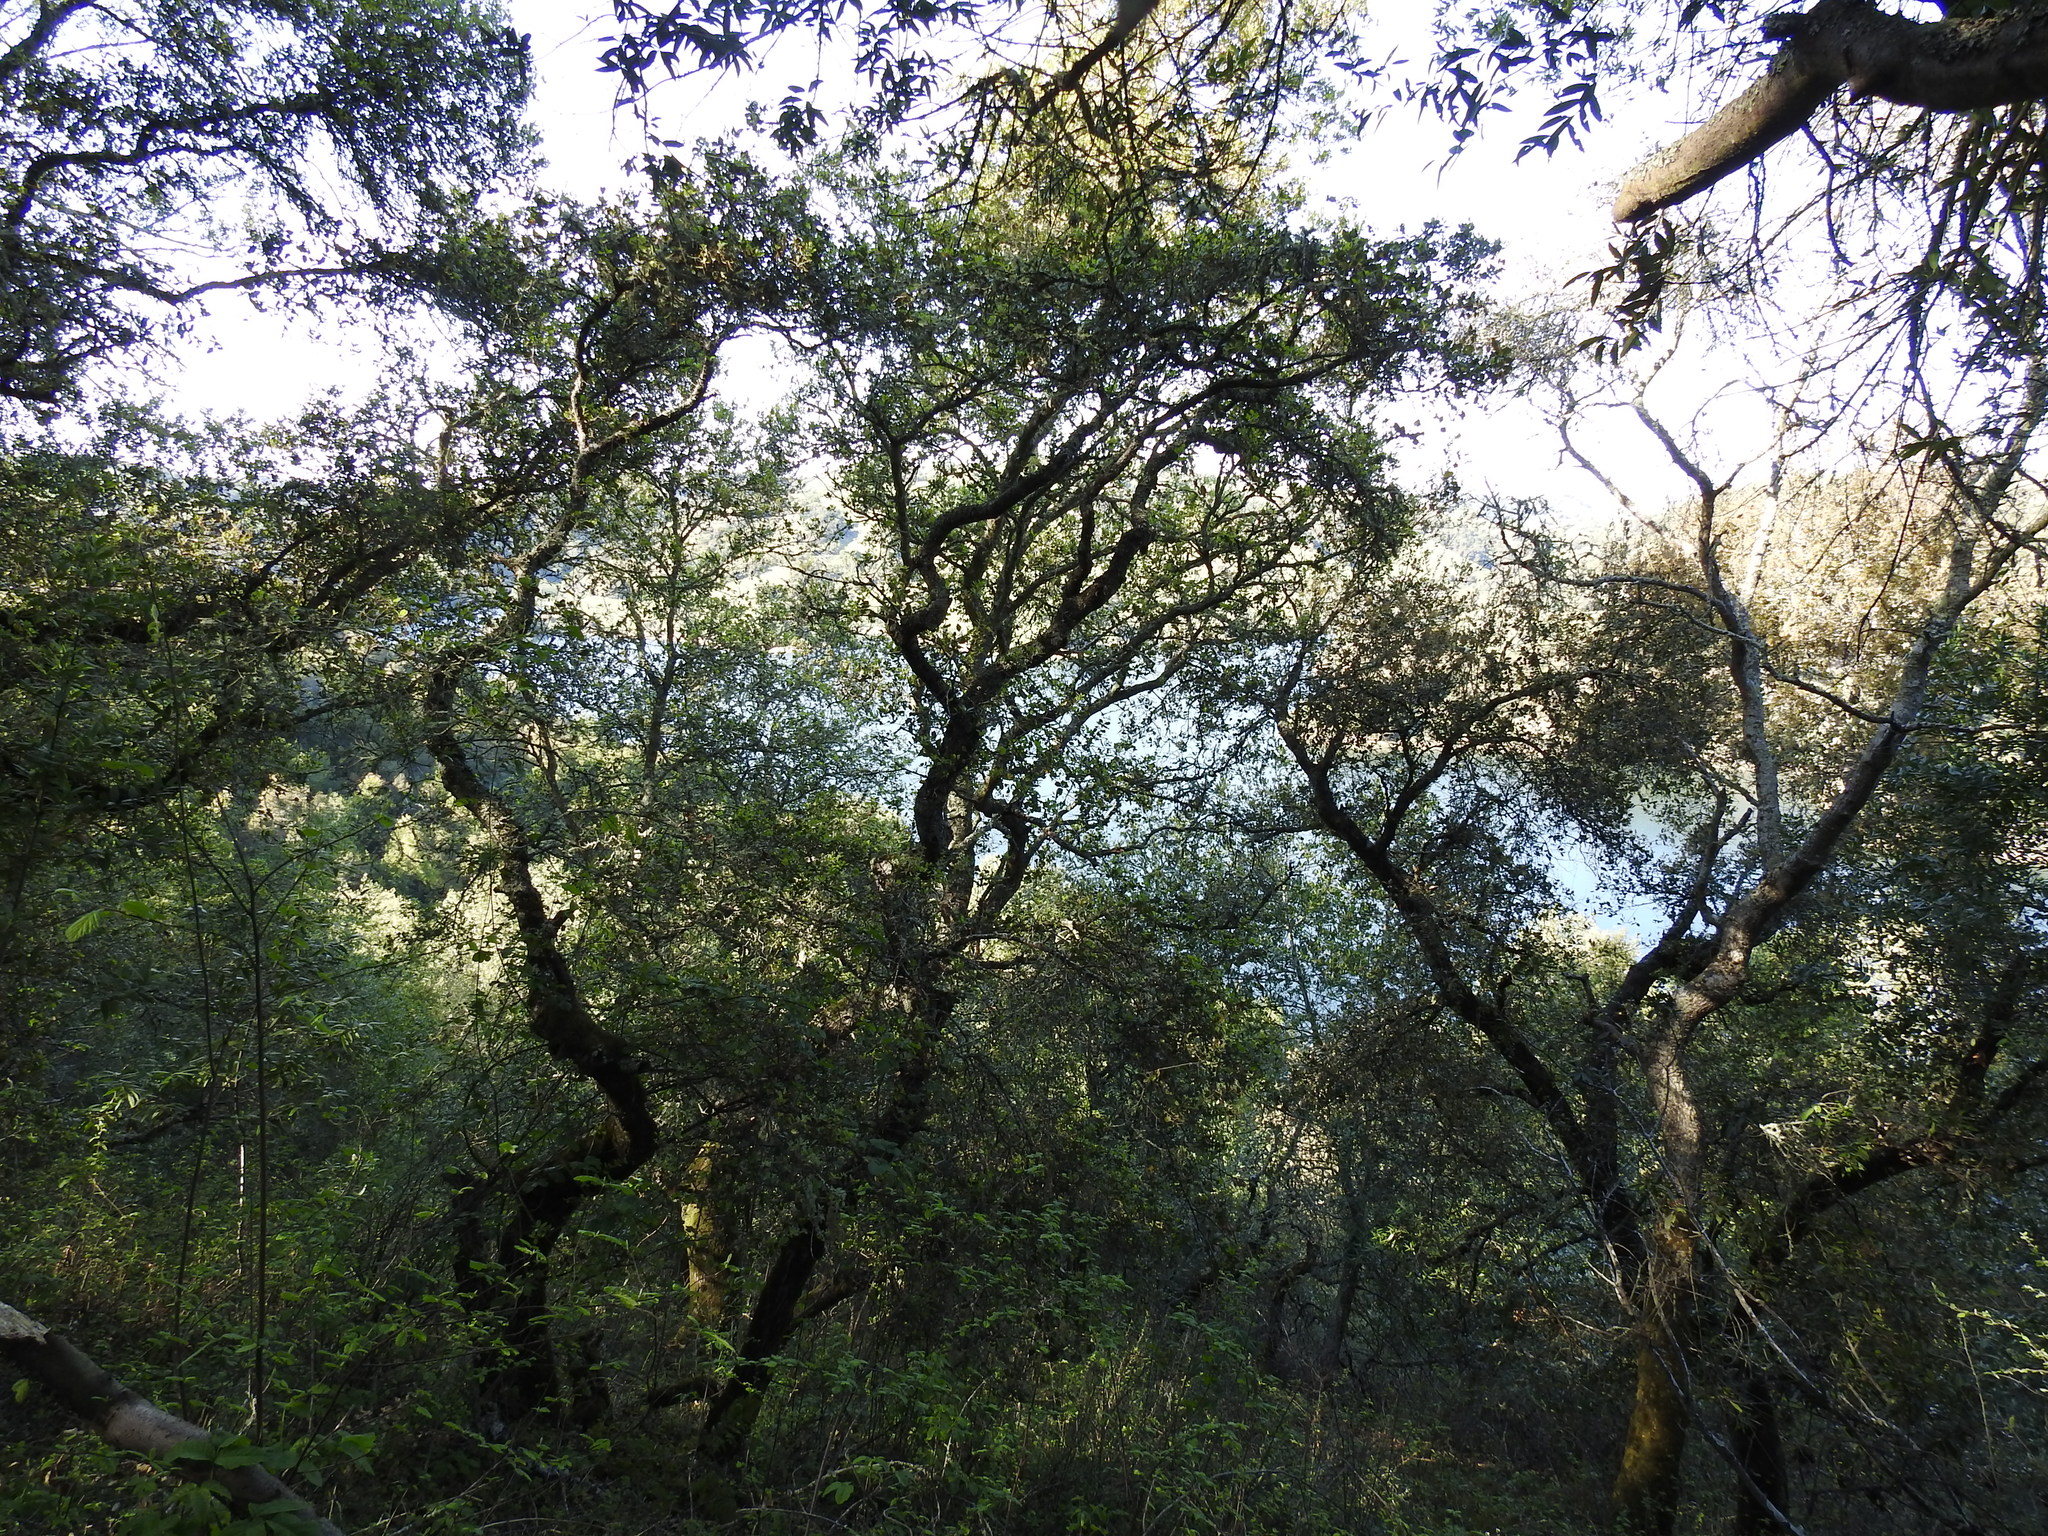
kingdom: Plantae
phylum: Tracheophyta
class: Magnoliopsida
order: Fagales
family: Fagaceae
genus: Quercus
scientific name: Quercus agrifolia
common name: California live oak
